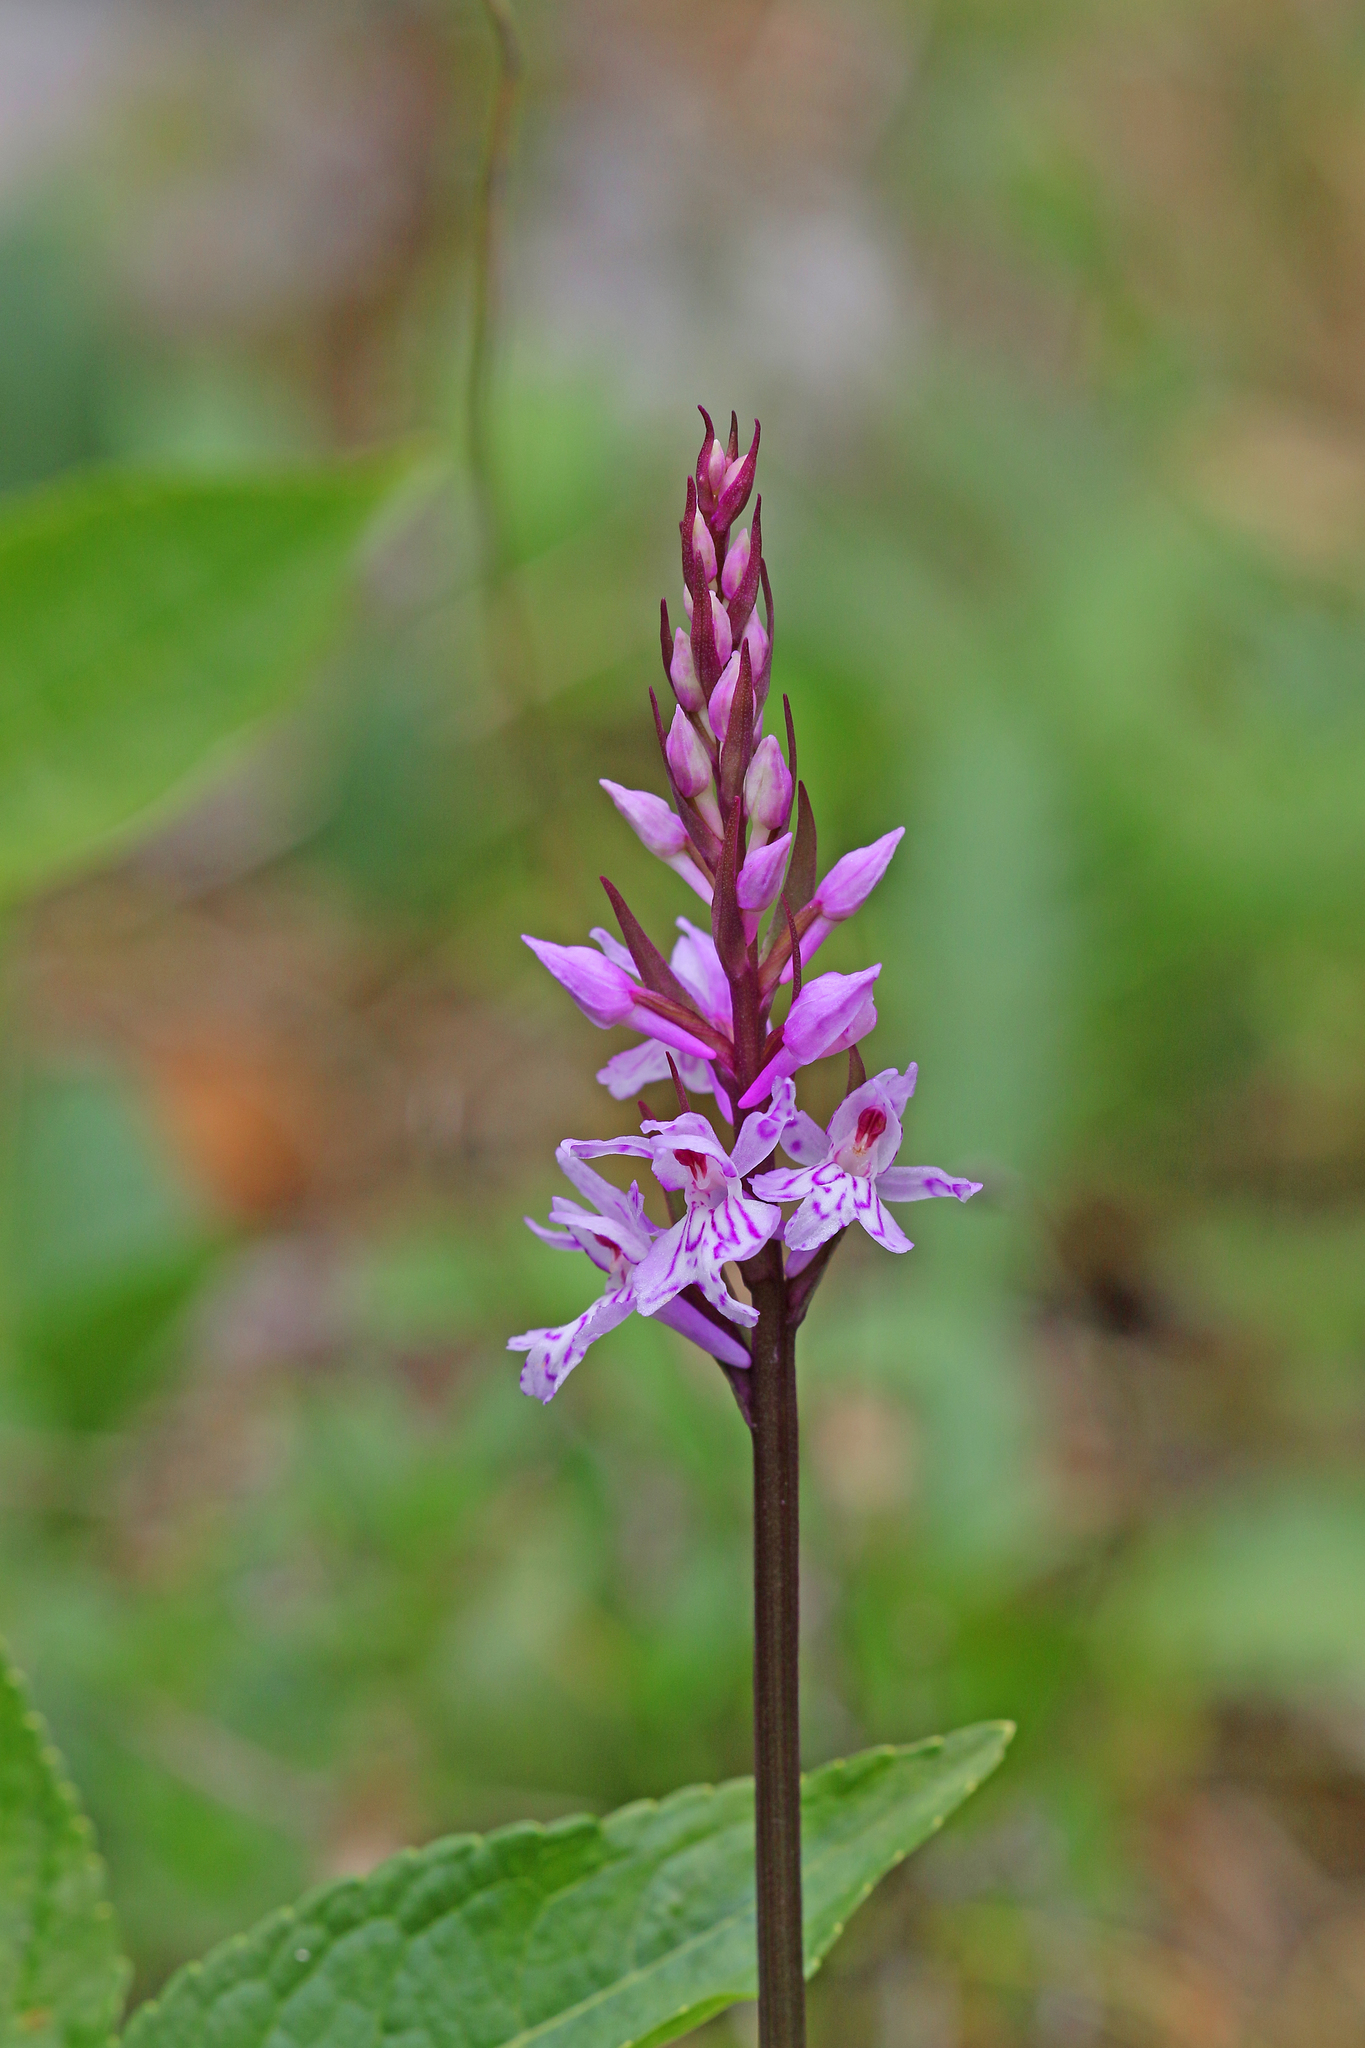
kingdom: Plantae
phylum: Tracheophyta
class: Liliopsida
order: Asparagales
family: Orchidaceae
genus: Dactylorhiza
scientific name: Dactylorhiza maculata
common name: Heath spotted-orchid
